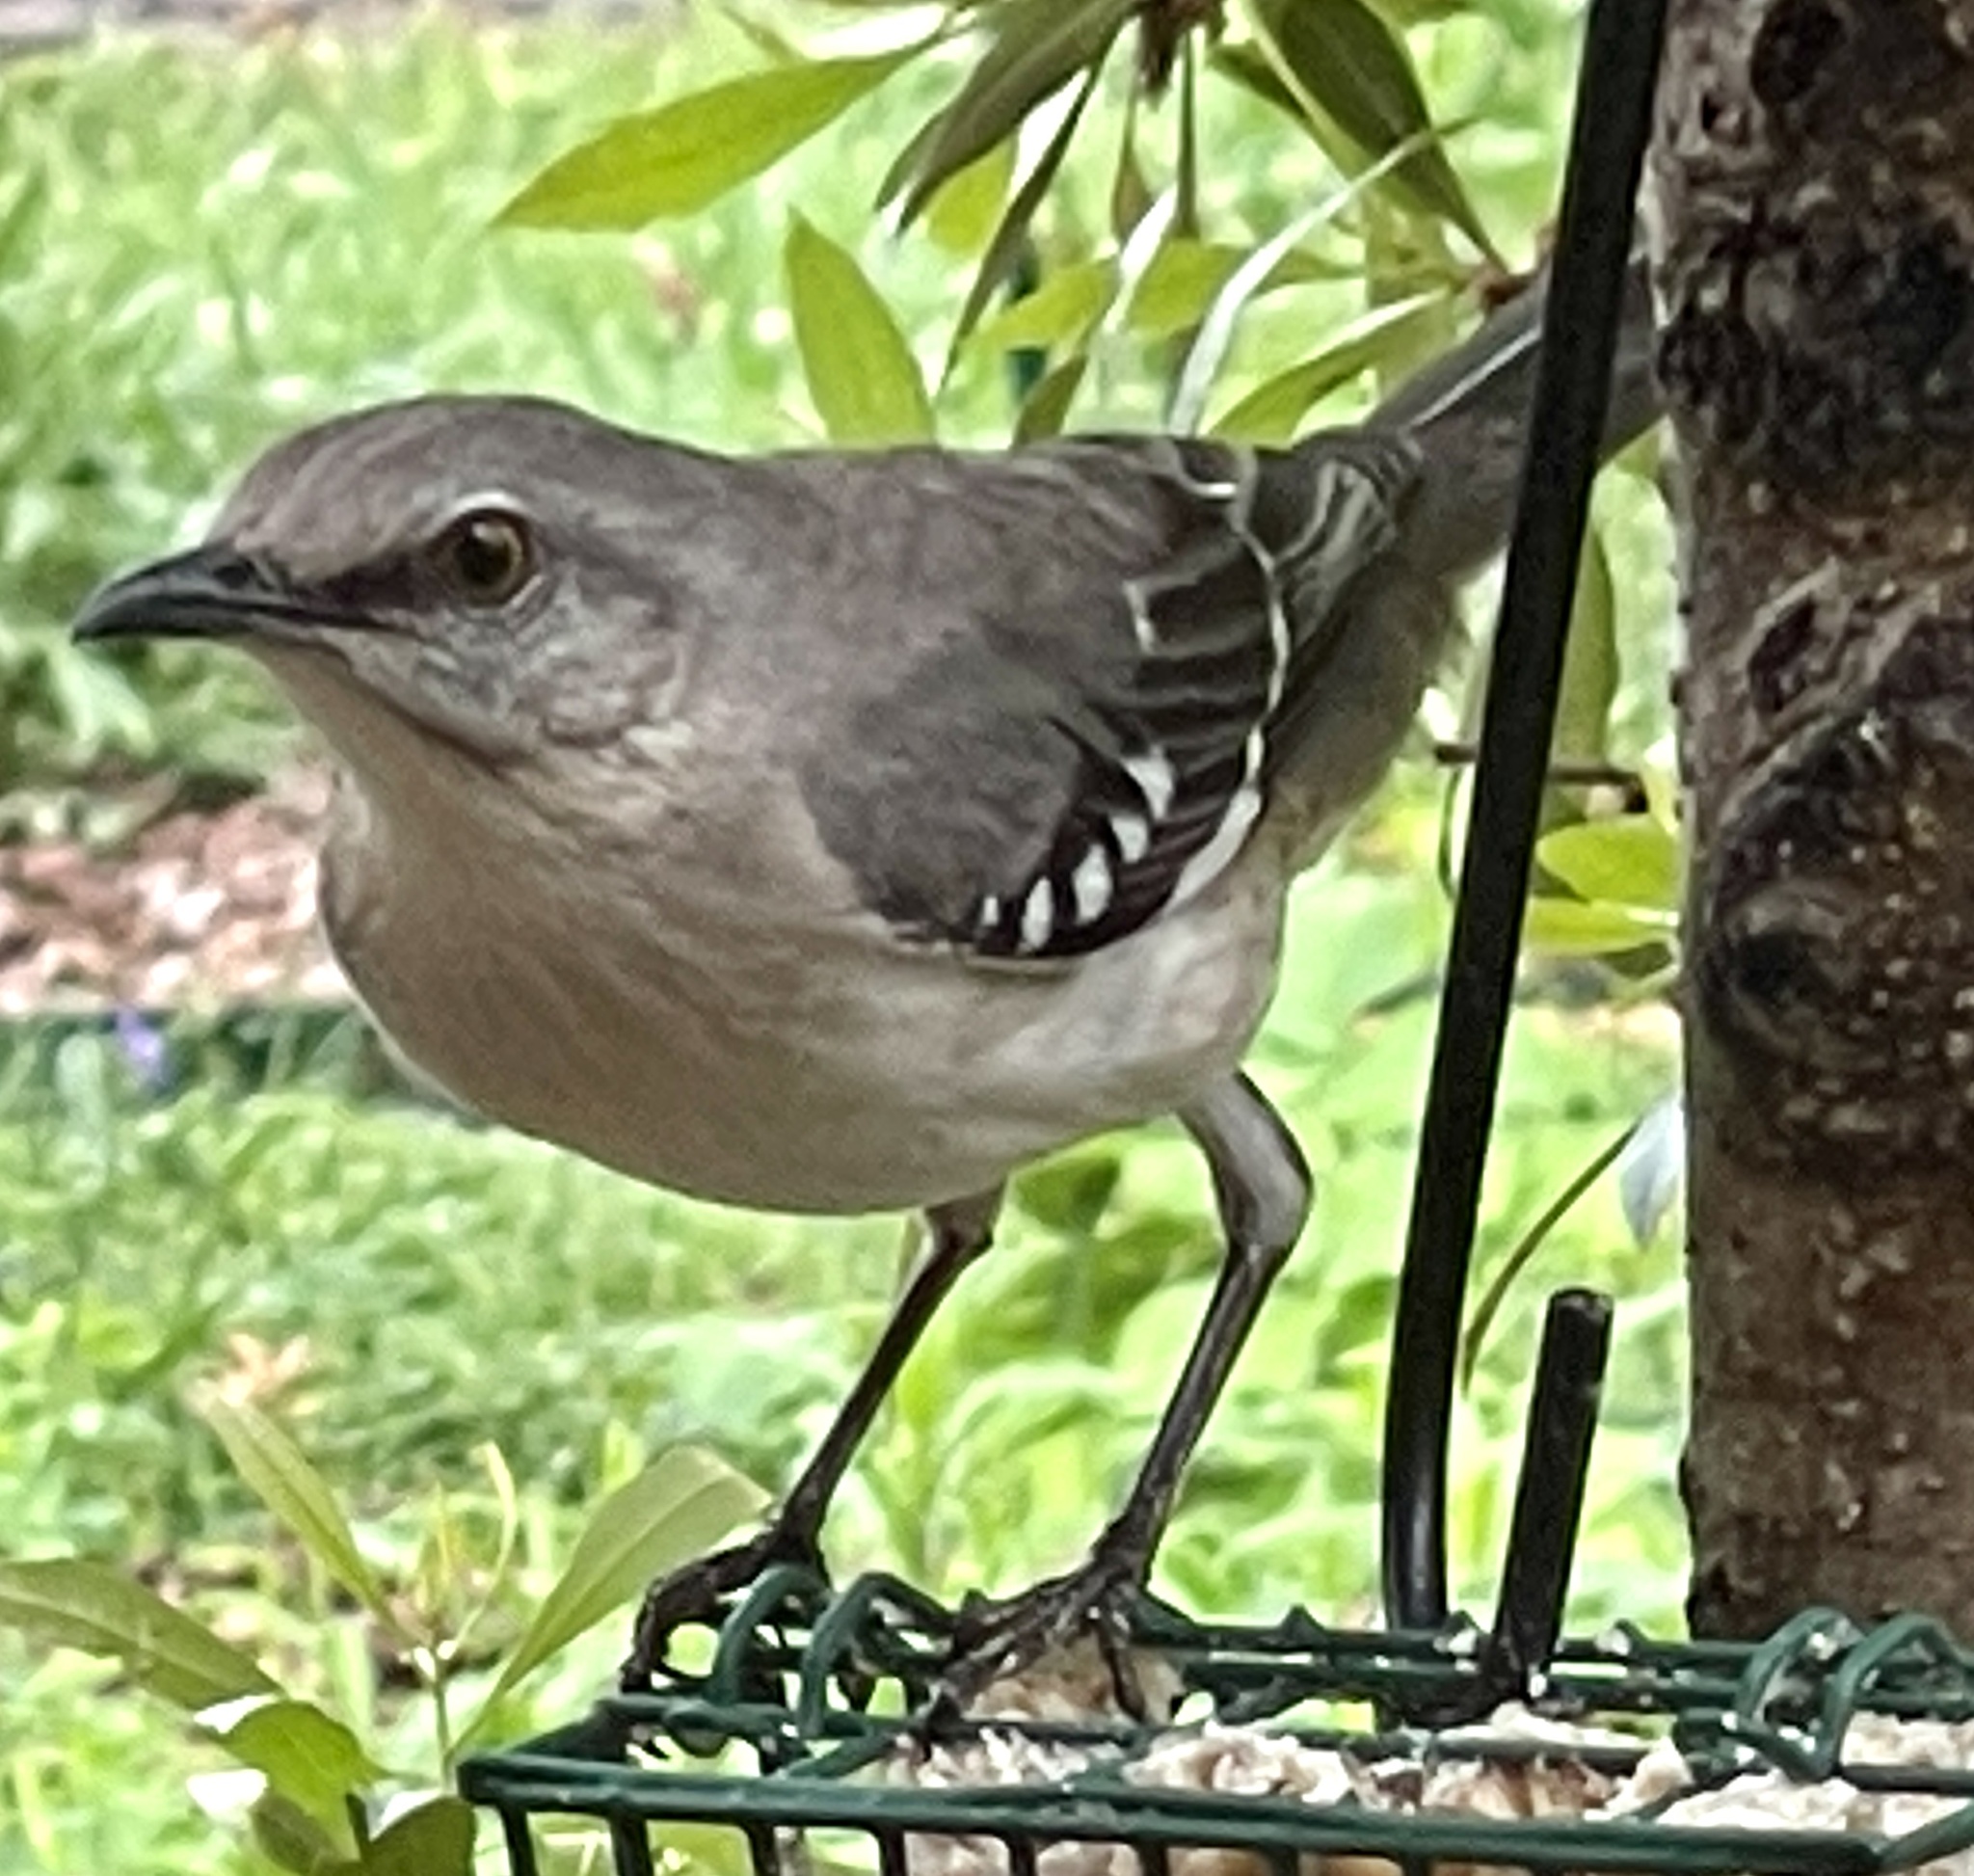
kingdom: Animalia
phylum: Chordata
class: Aves
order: Passeriformes
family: Mimidae
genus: Mimus
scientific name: Mimus polyglottos
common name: Northern mockingbird
